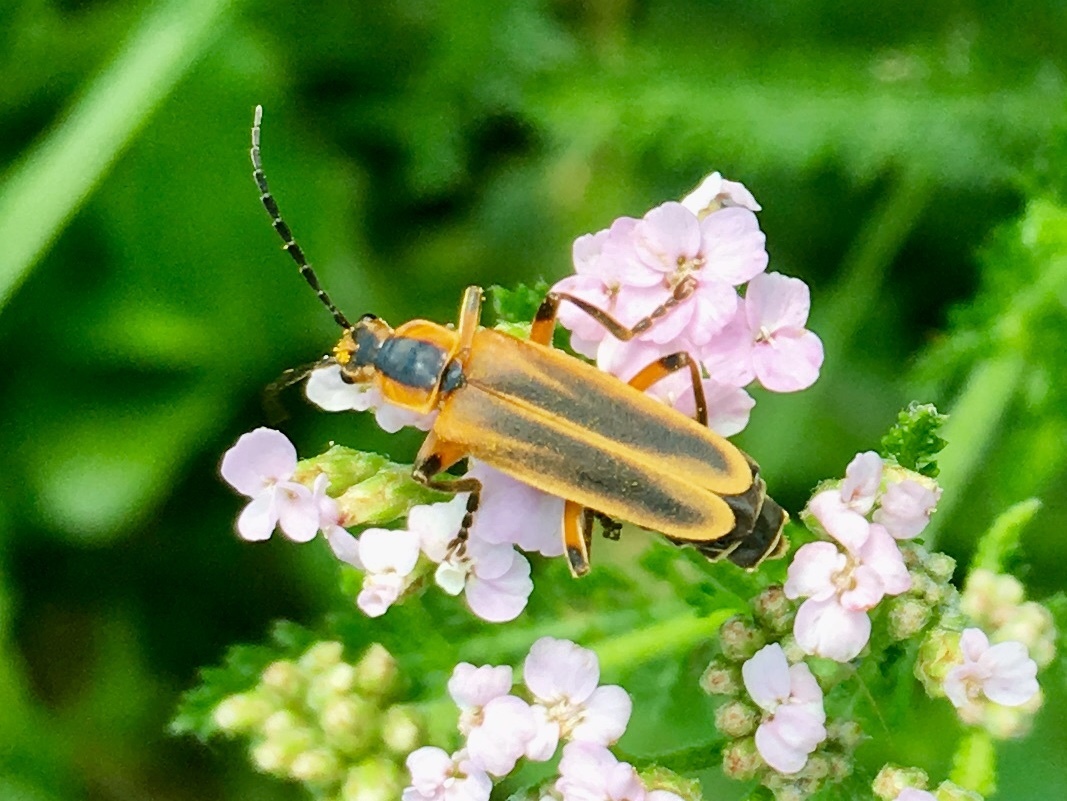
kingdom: Animalia
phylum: Arthropoda
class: Insecta
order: Coleoptera
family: Cantharidae
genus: Chauliognathus
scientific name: Chauliognathus marginatus
